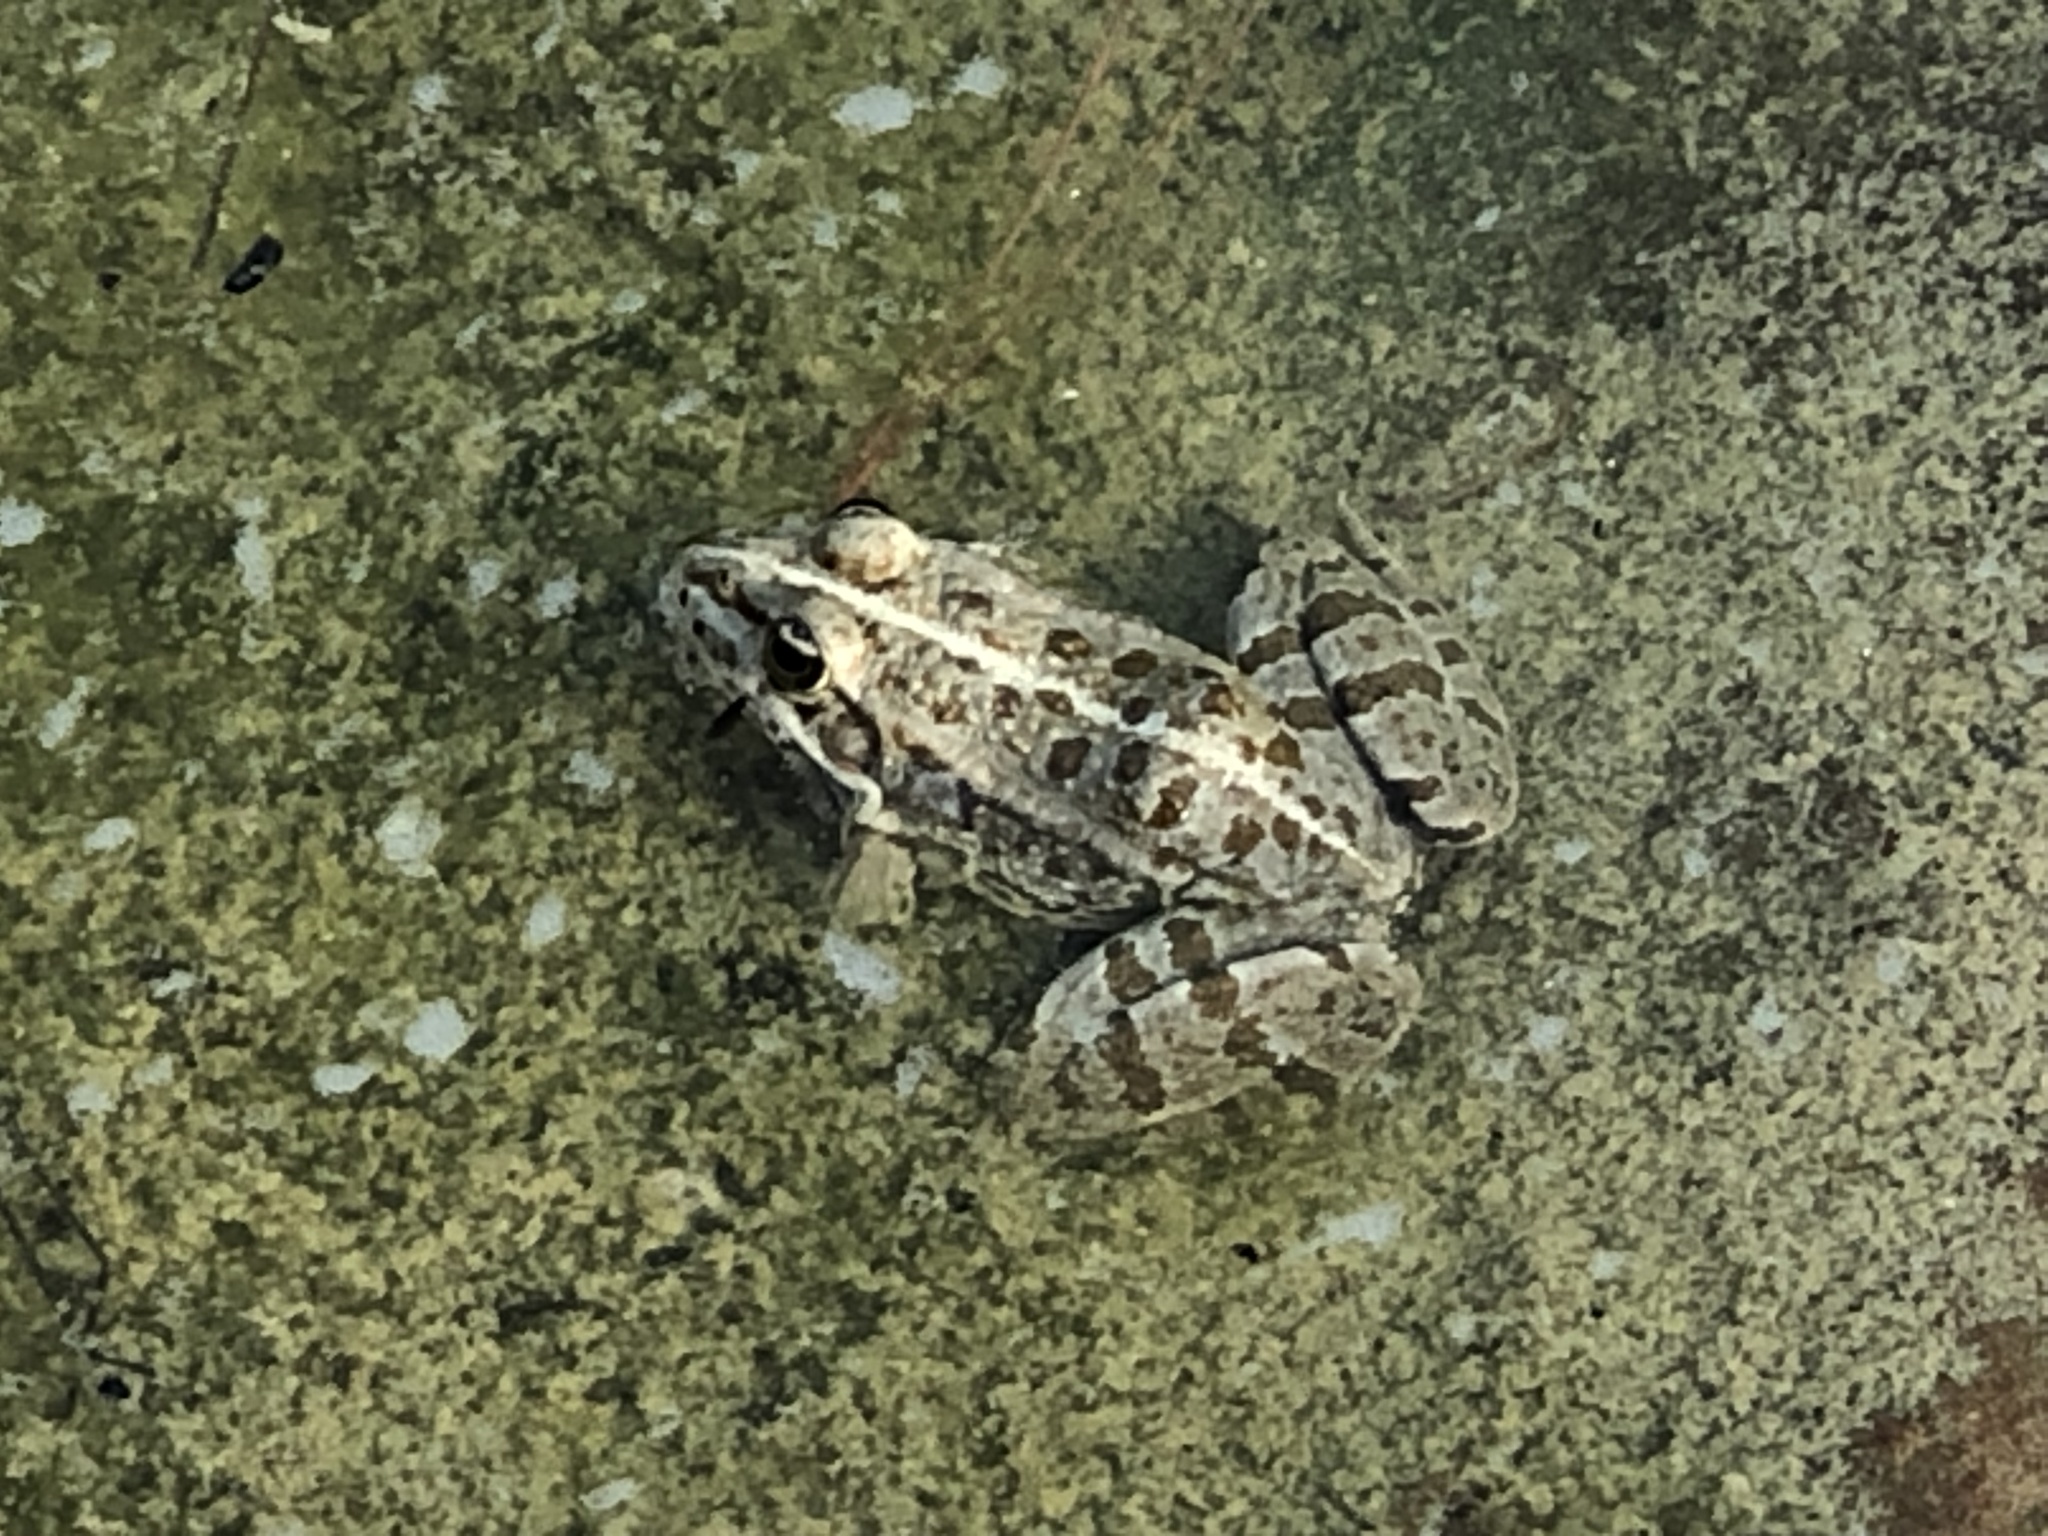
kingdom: Animalia
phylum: Chordata
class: Amphibia
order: Anura
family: Ranidae
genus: Pelophylax
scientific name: Pelophylax perezi
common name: Perez's frog
